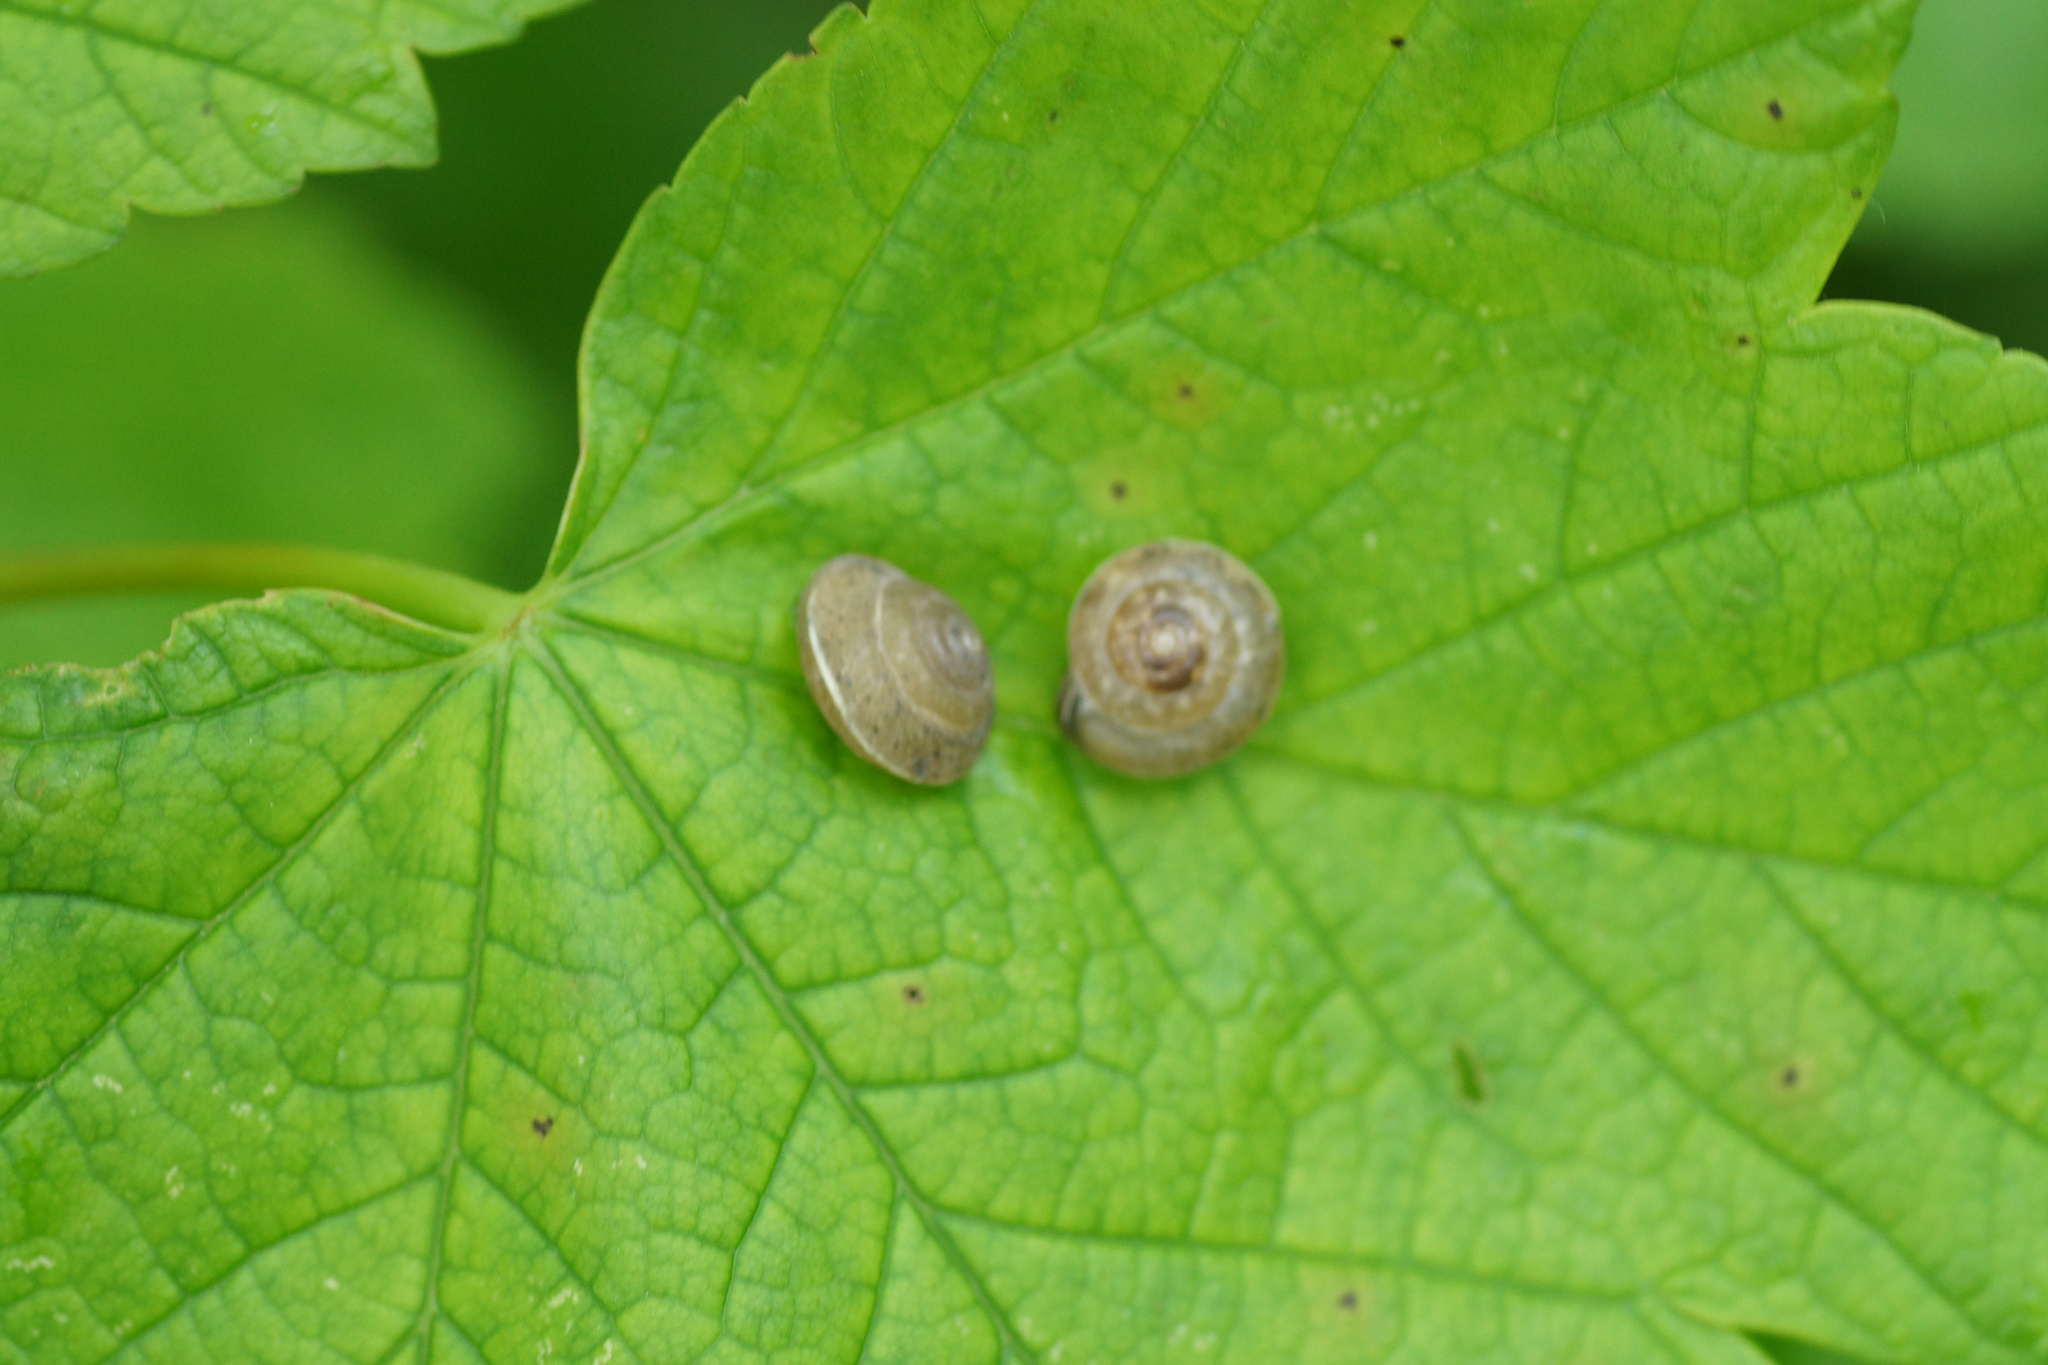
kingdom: Animalia
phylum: Mollusca
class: Gastropoda
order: Stylommatophora
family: Hygromiidae
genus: Hygromia
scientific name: Hygromia cinctella
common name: Girdled snail
